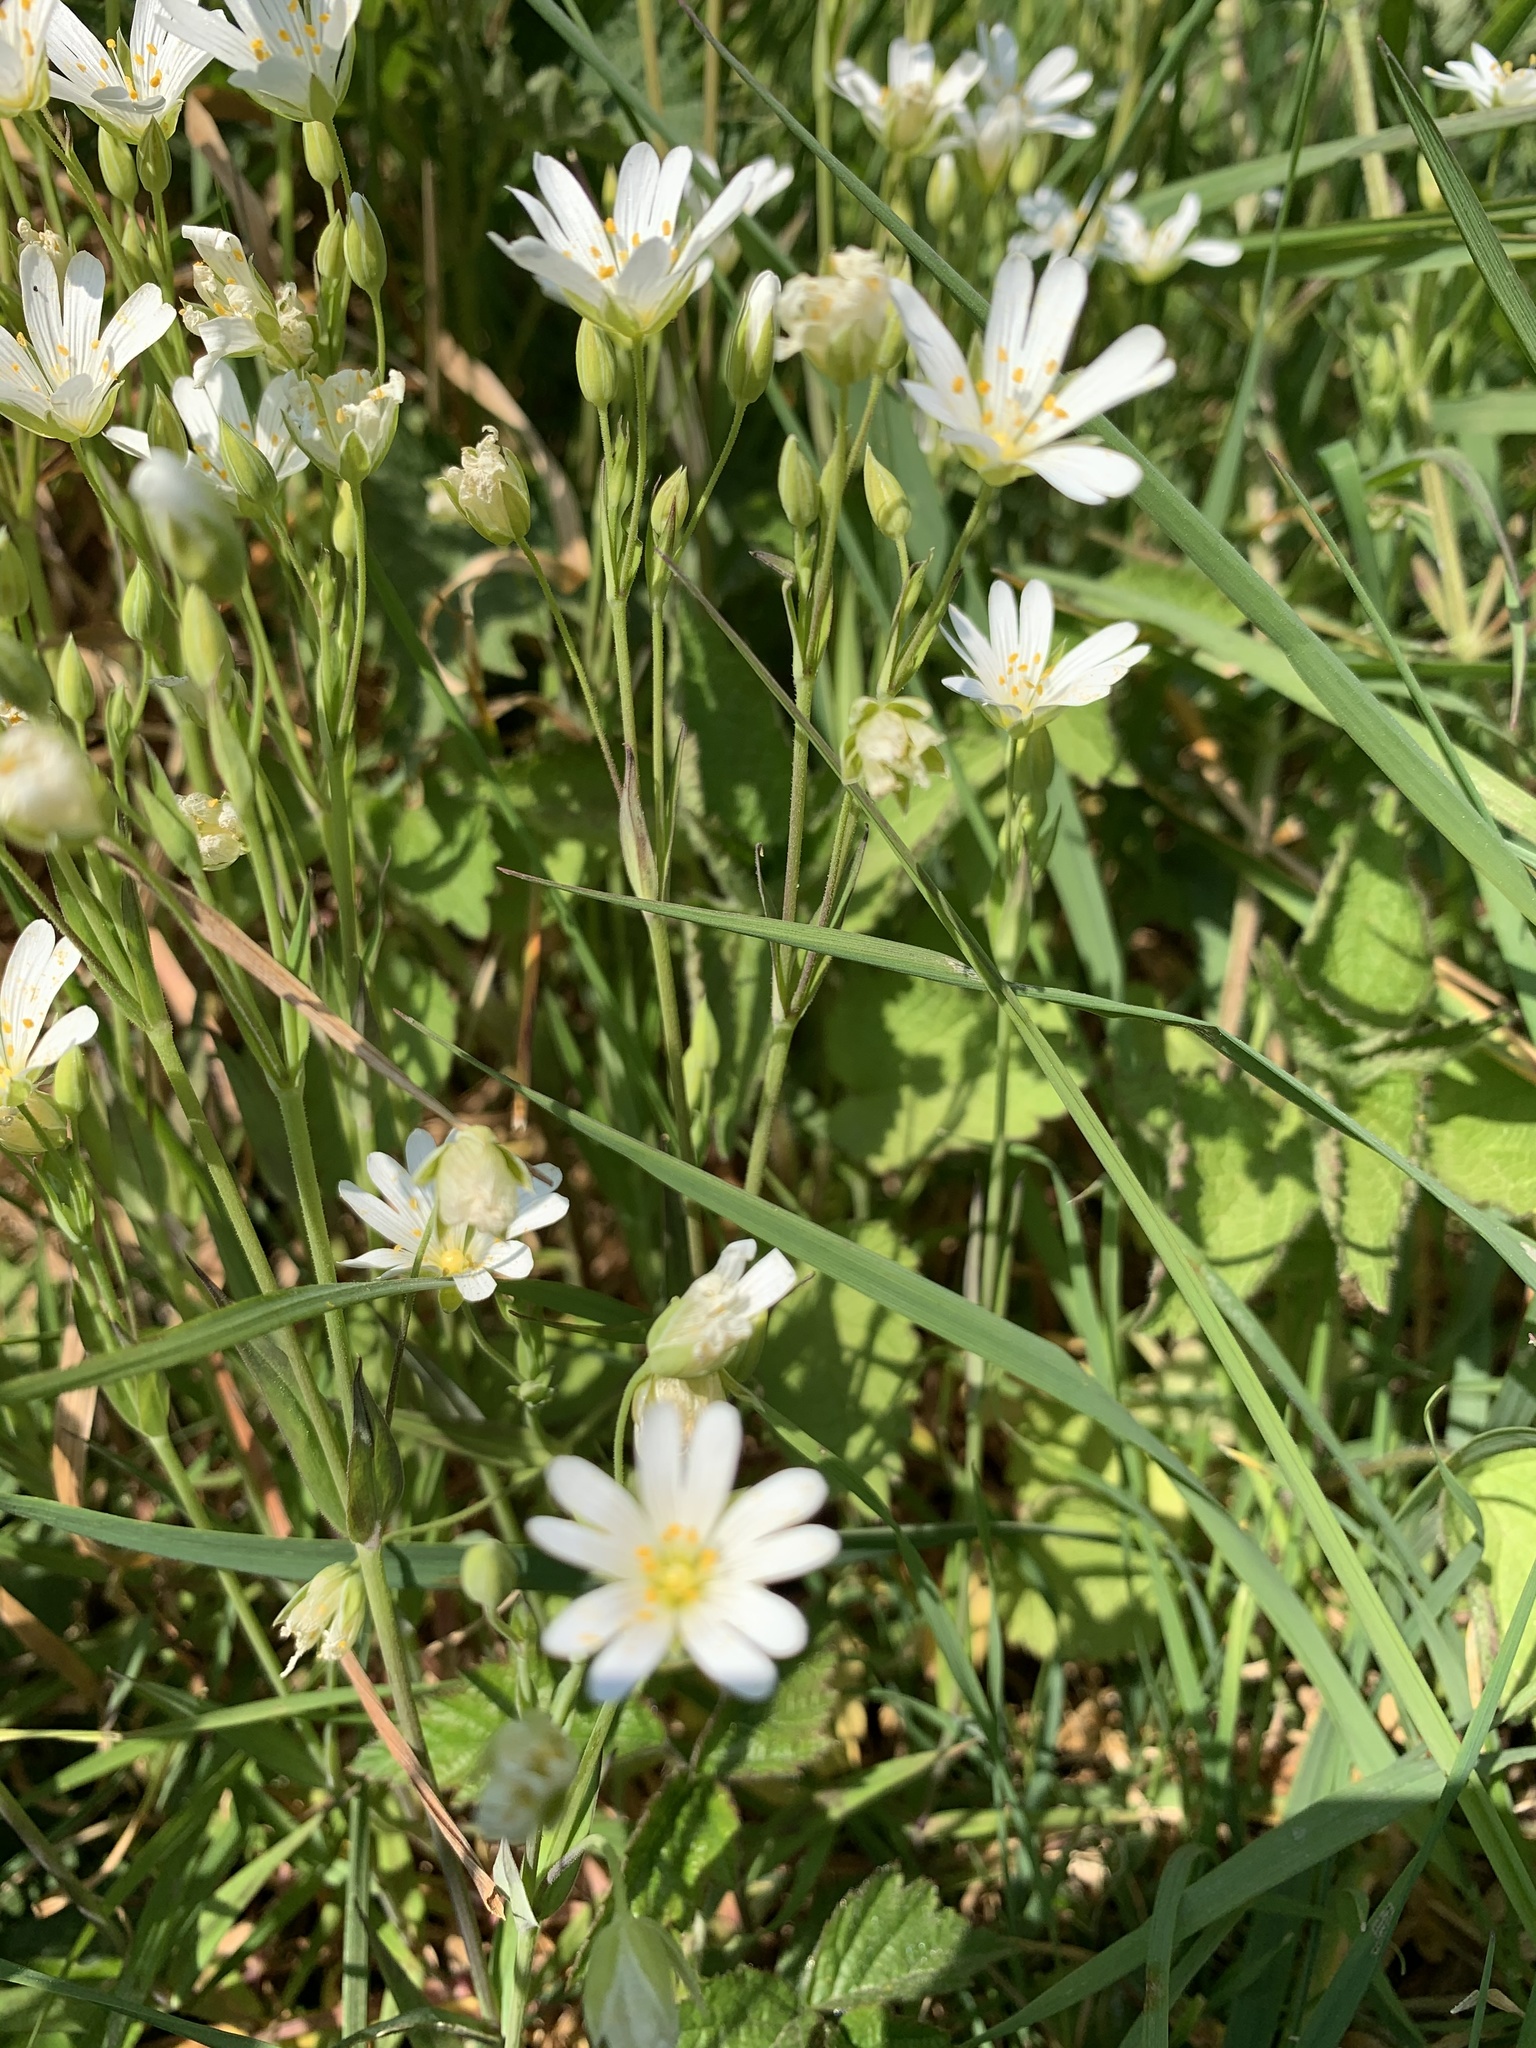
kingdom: Plantae
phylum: Tracheophyta
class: Magnoliopsida
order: Caryophyllales
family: Caryophyllaceae
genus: Rabelera
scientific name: Rabelera holostea
